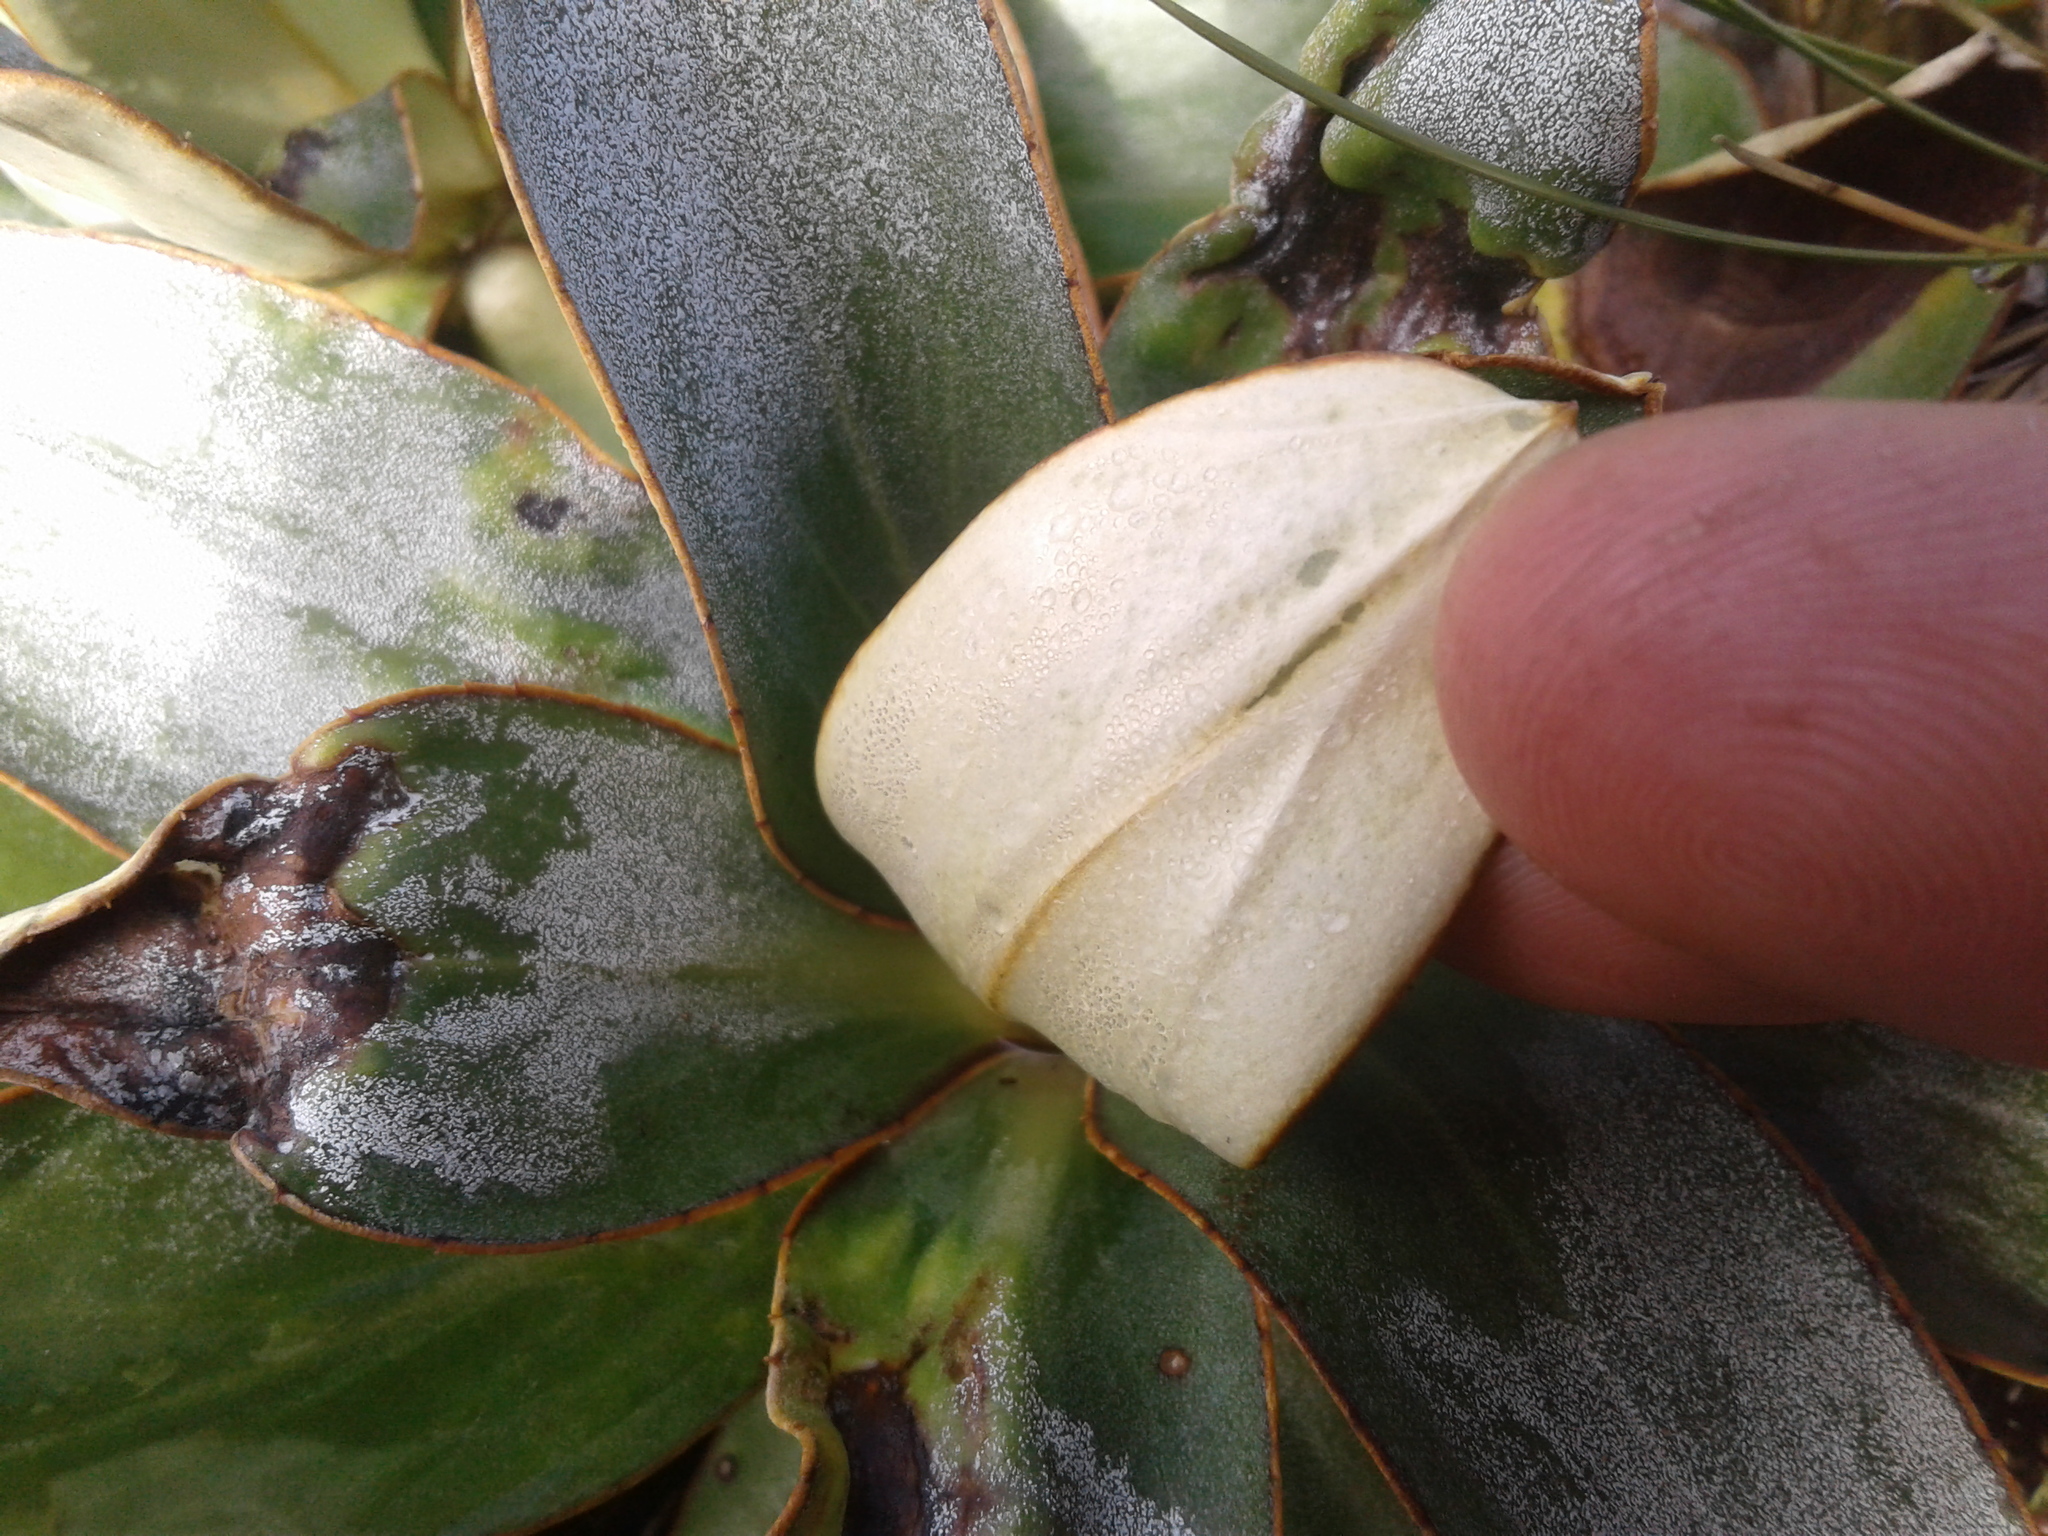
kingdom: Plantae
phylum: Tracheophyta
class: Magnoliopsida
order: Asterales
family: Asteraceae
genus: Celmisia
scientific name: Celmisia dallii
